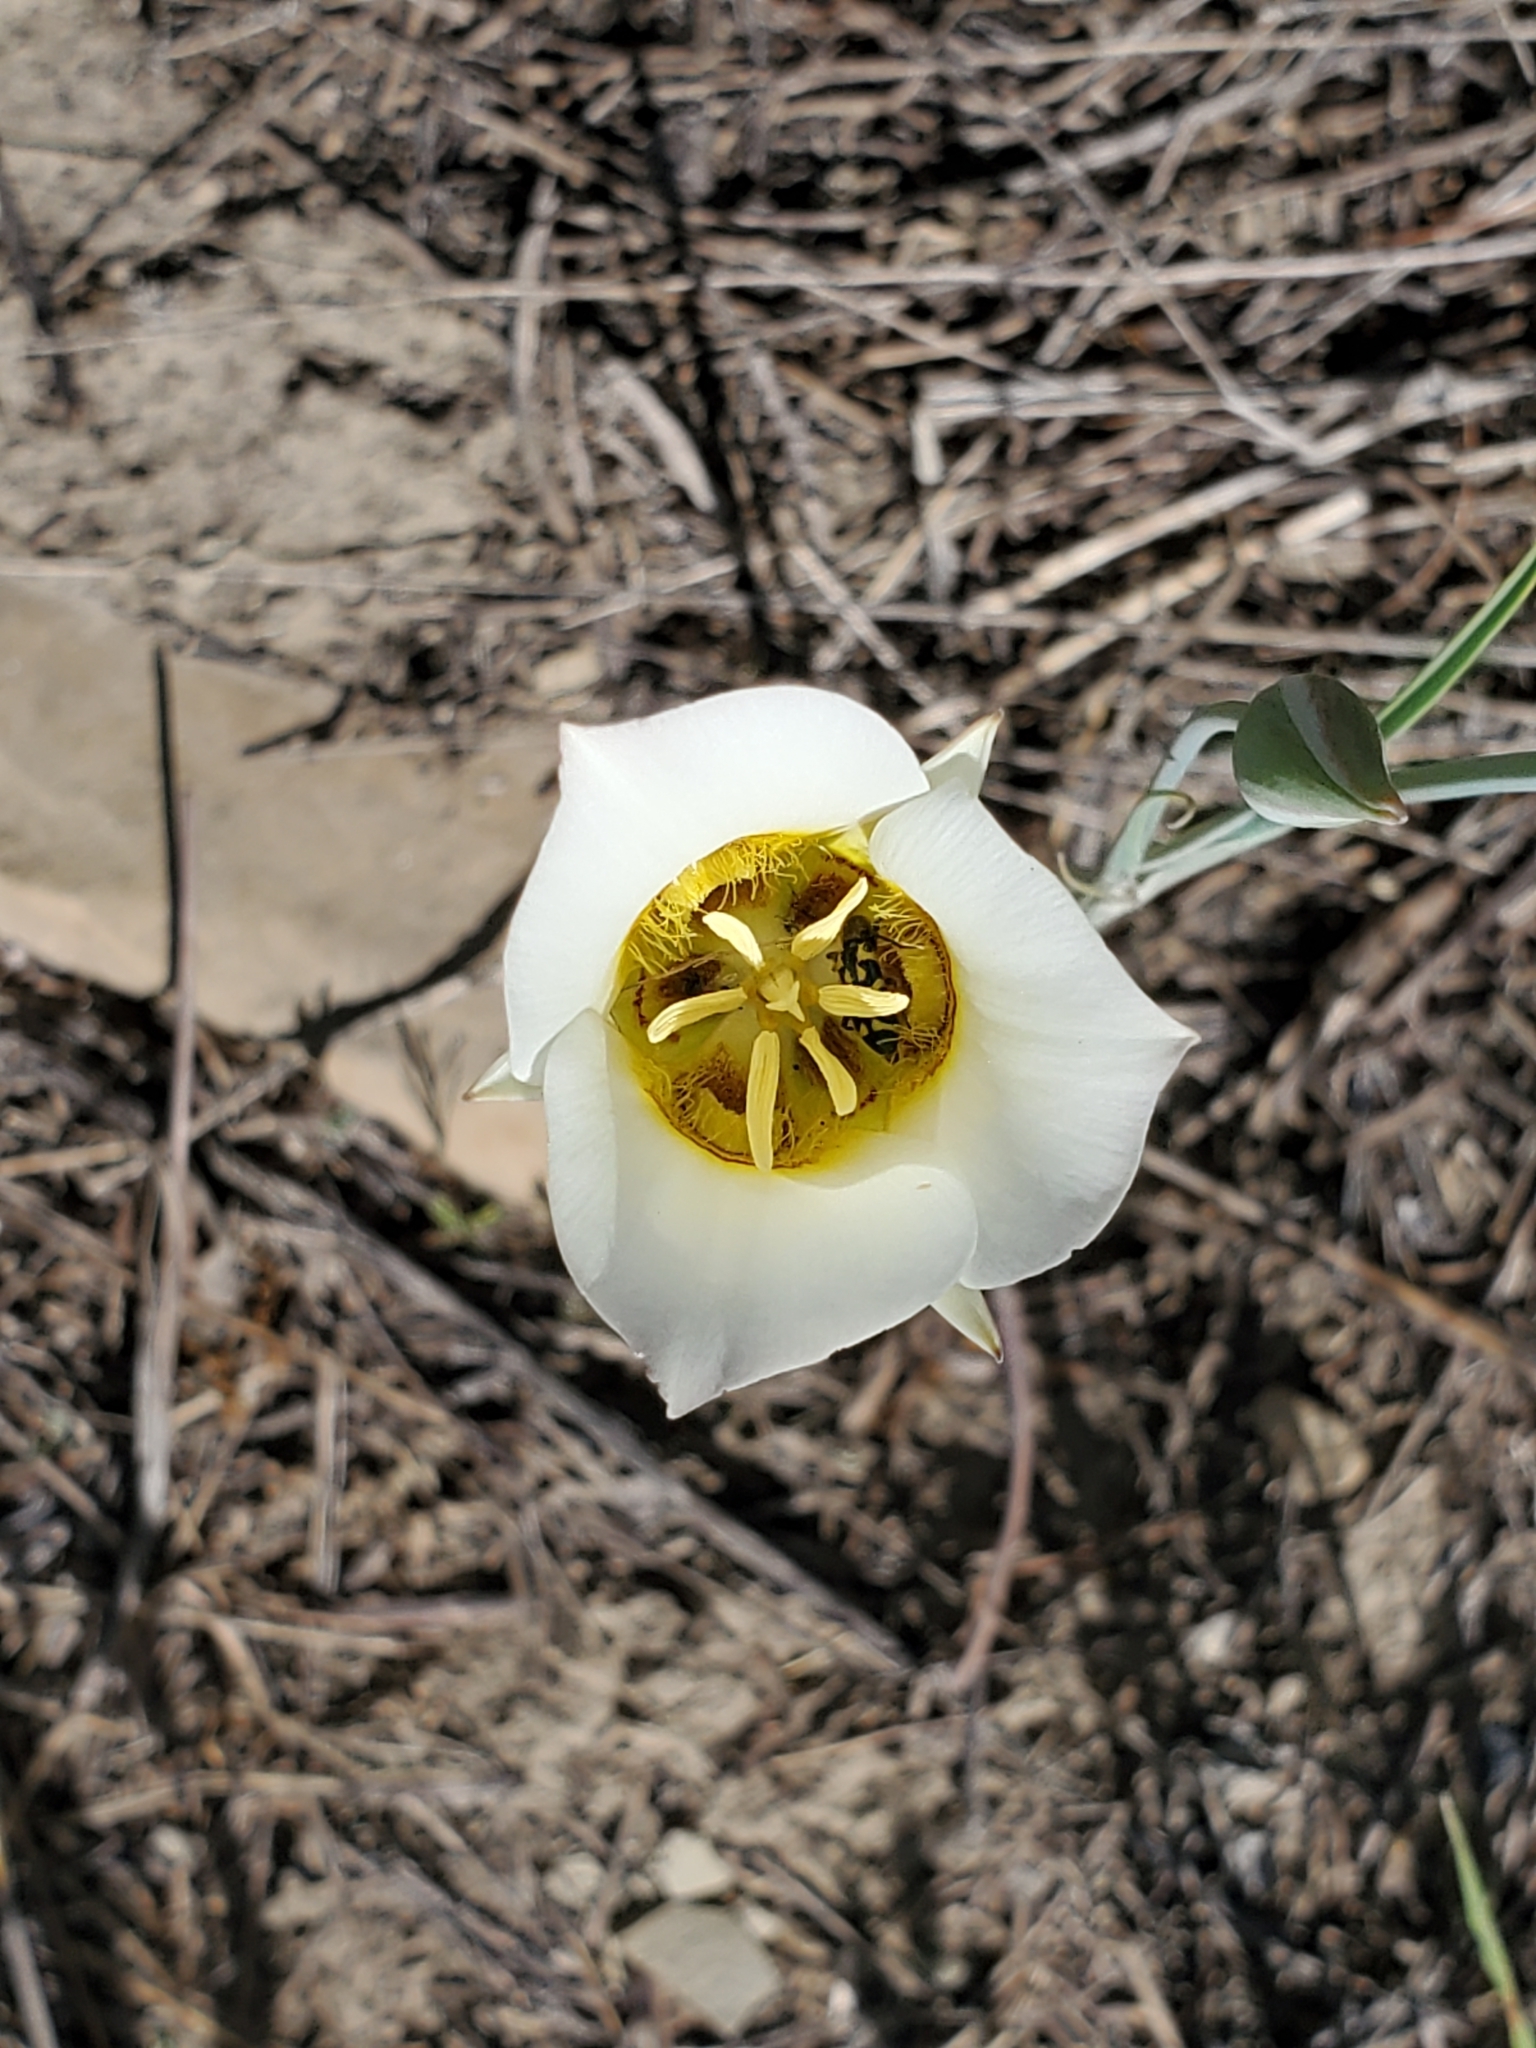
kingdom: Plantae
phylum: Tracheophyta
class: Liliopsida
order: Liliales
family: Liliaceae
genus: Calochortus
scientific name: Calochortus nuttallii
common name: Sego-lily
